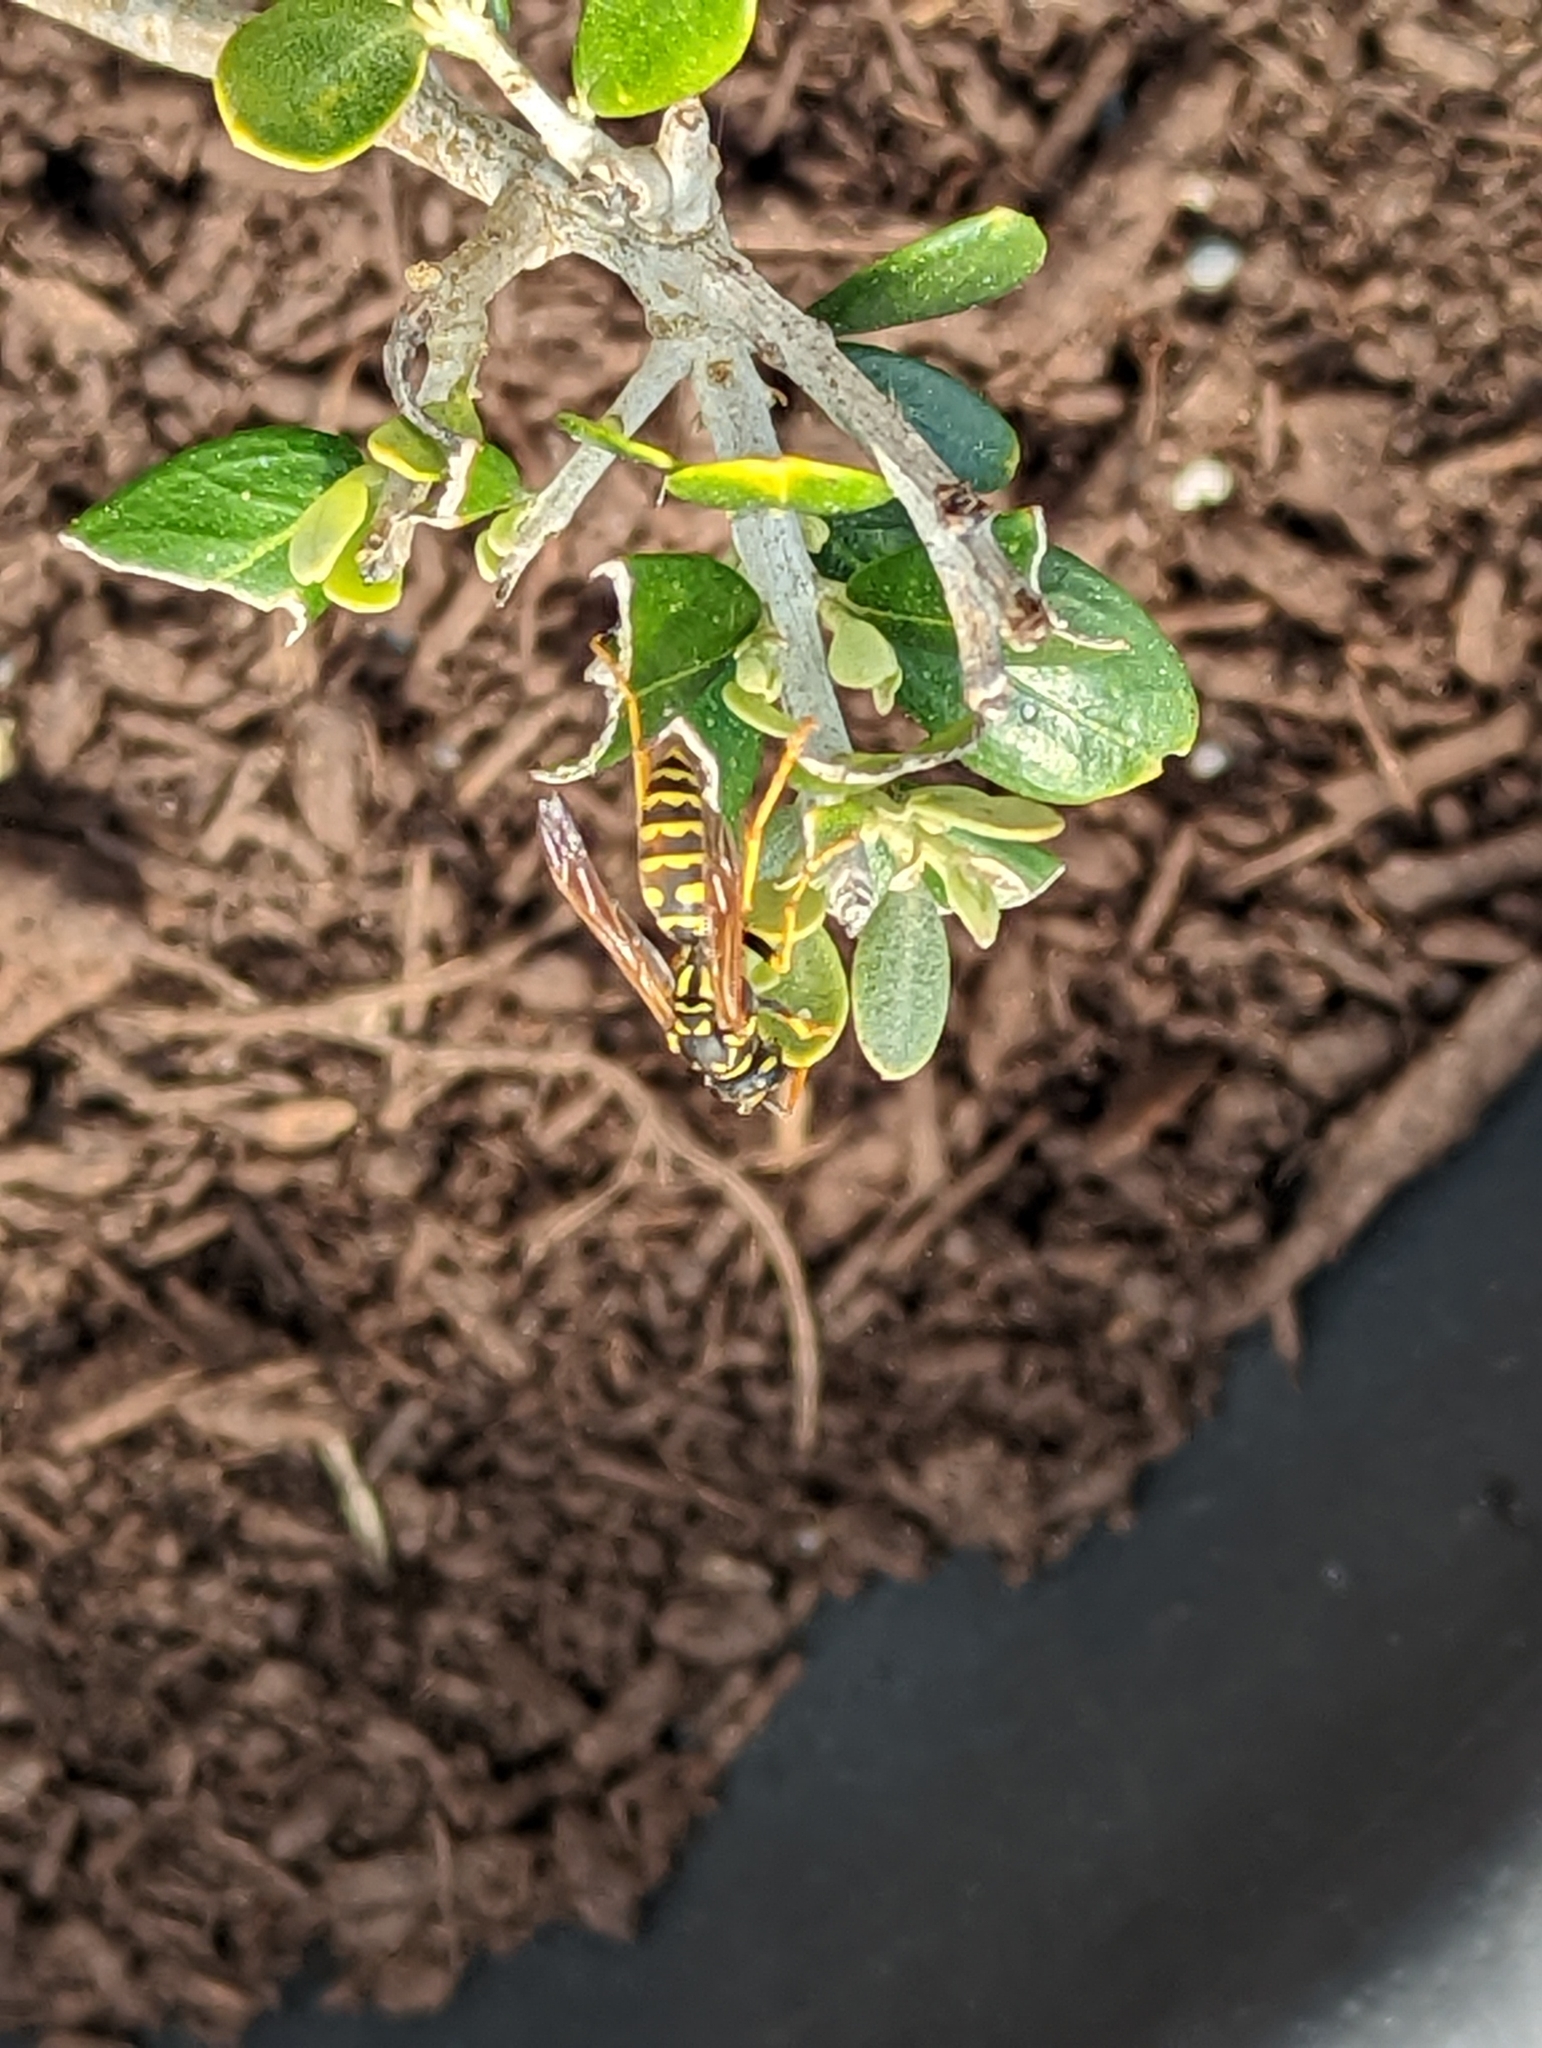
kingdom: Animalia
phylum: Arthropoda
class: Insecta
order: Hymenoptera
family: Eumenidae
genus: Polistes
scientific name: Polistes dominula
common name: Paper wasp
